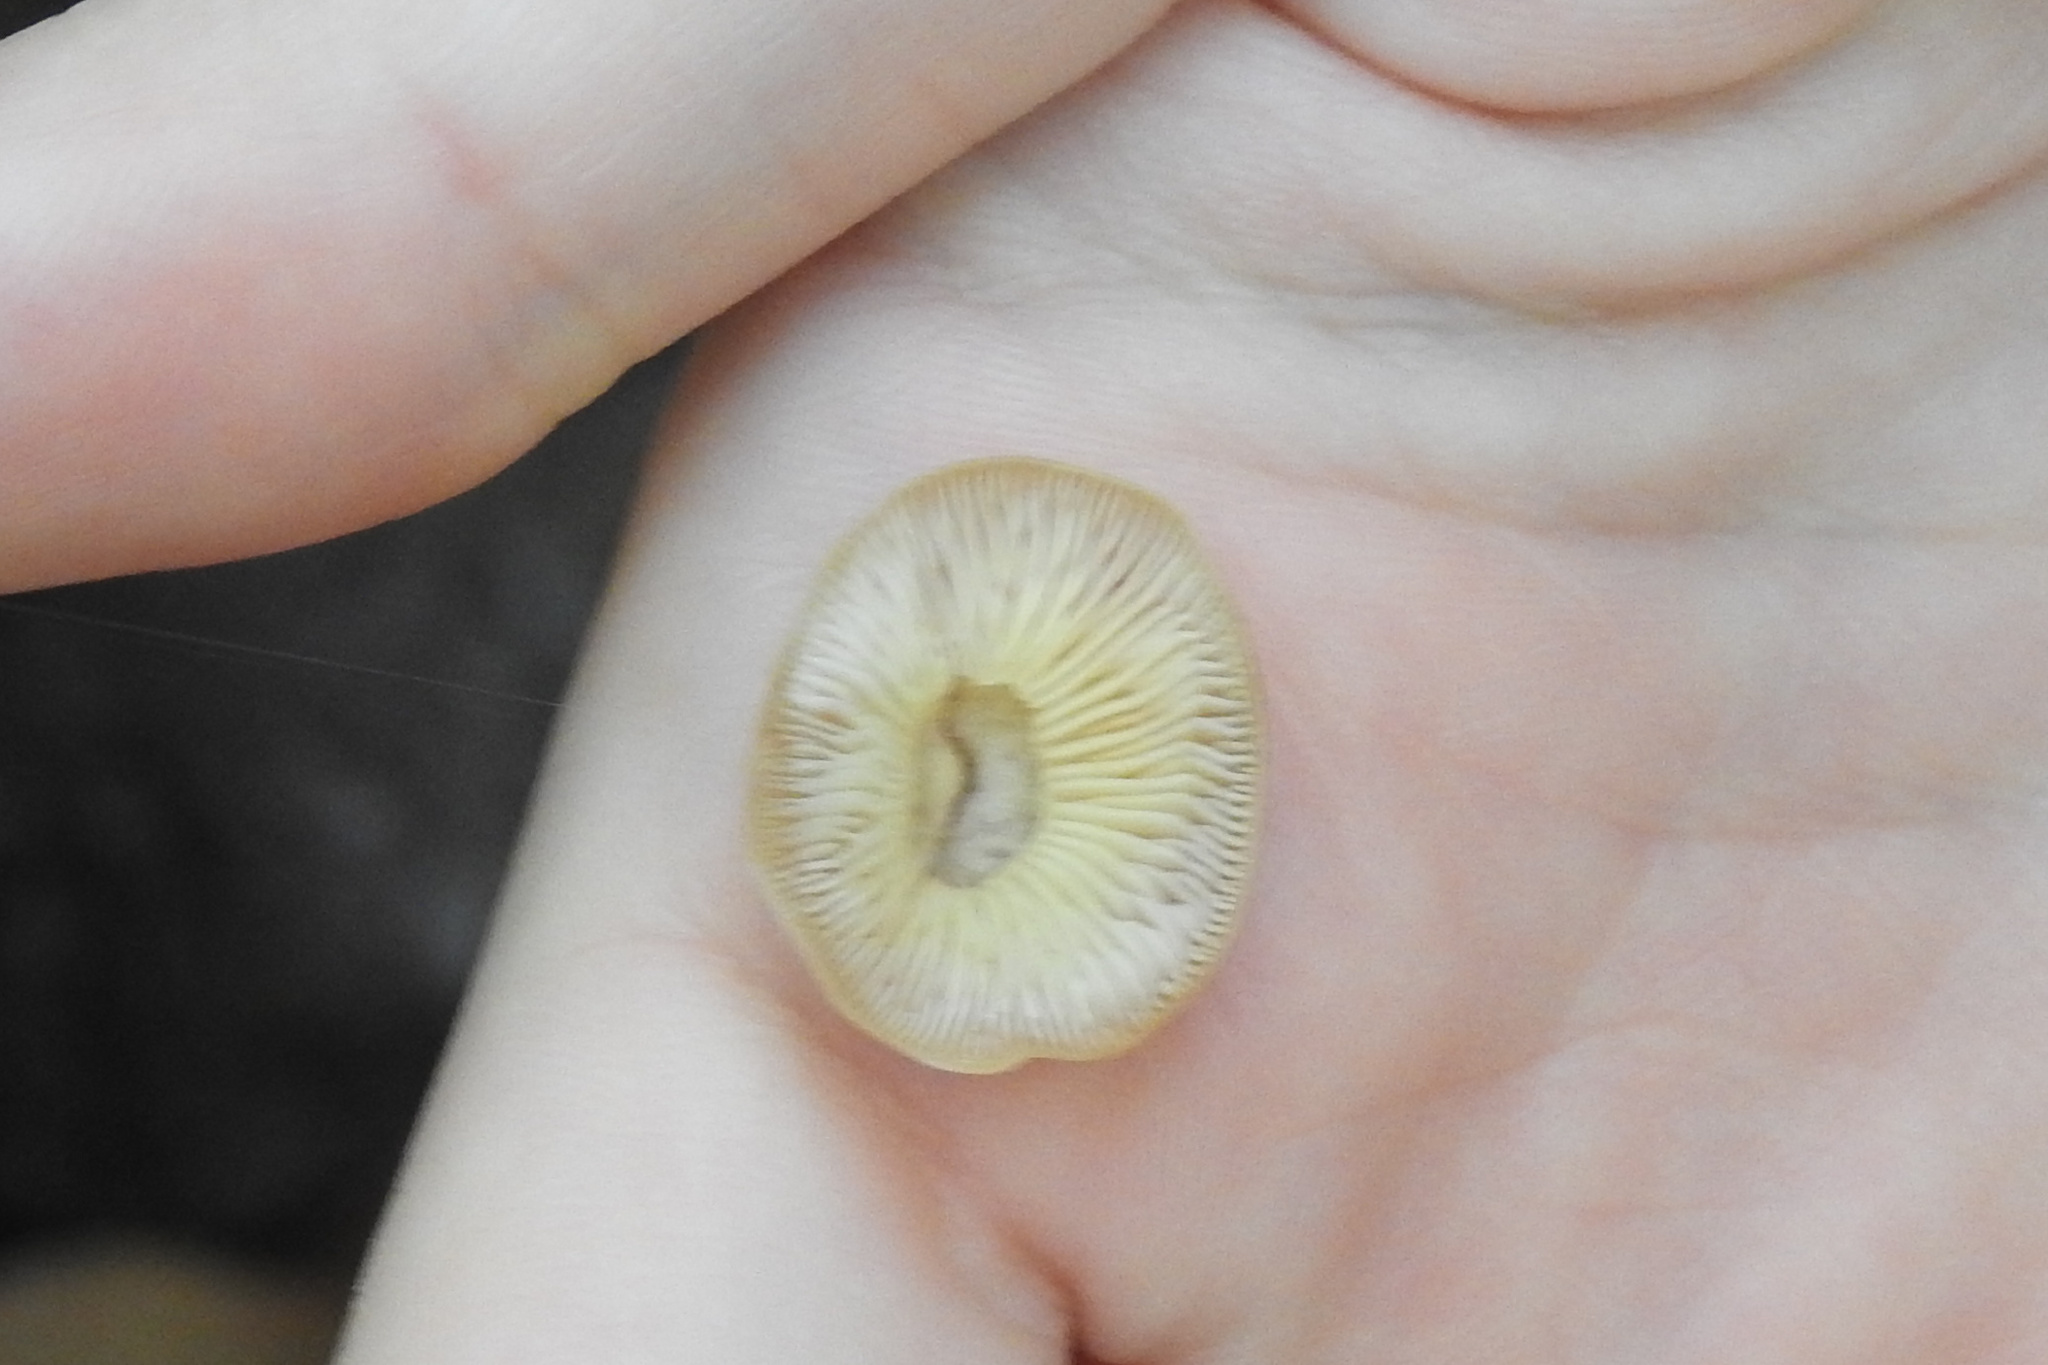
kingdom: Fungi
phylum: Basidiomycota
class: Agaricomycetes
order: Agaricales
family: Physalacriaceae
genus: Flammulina
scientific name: Flammulina velutipes
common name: Velvet shank
